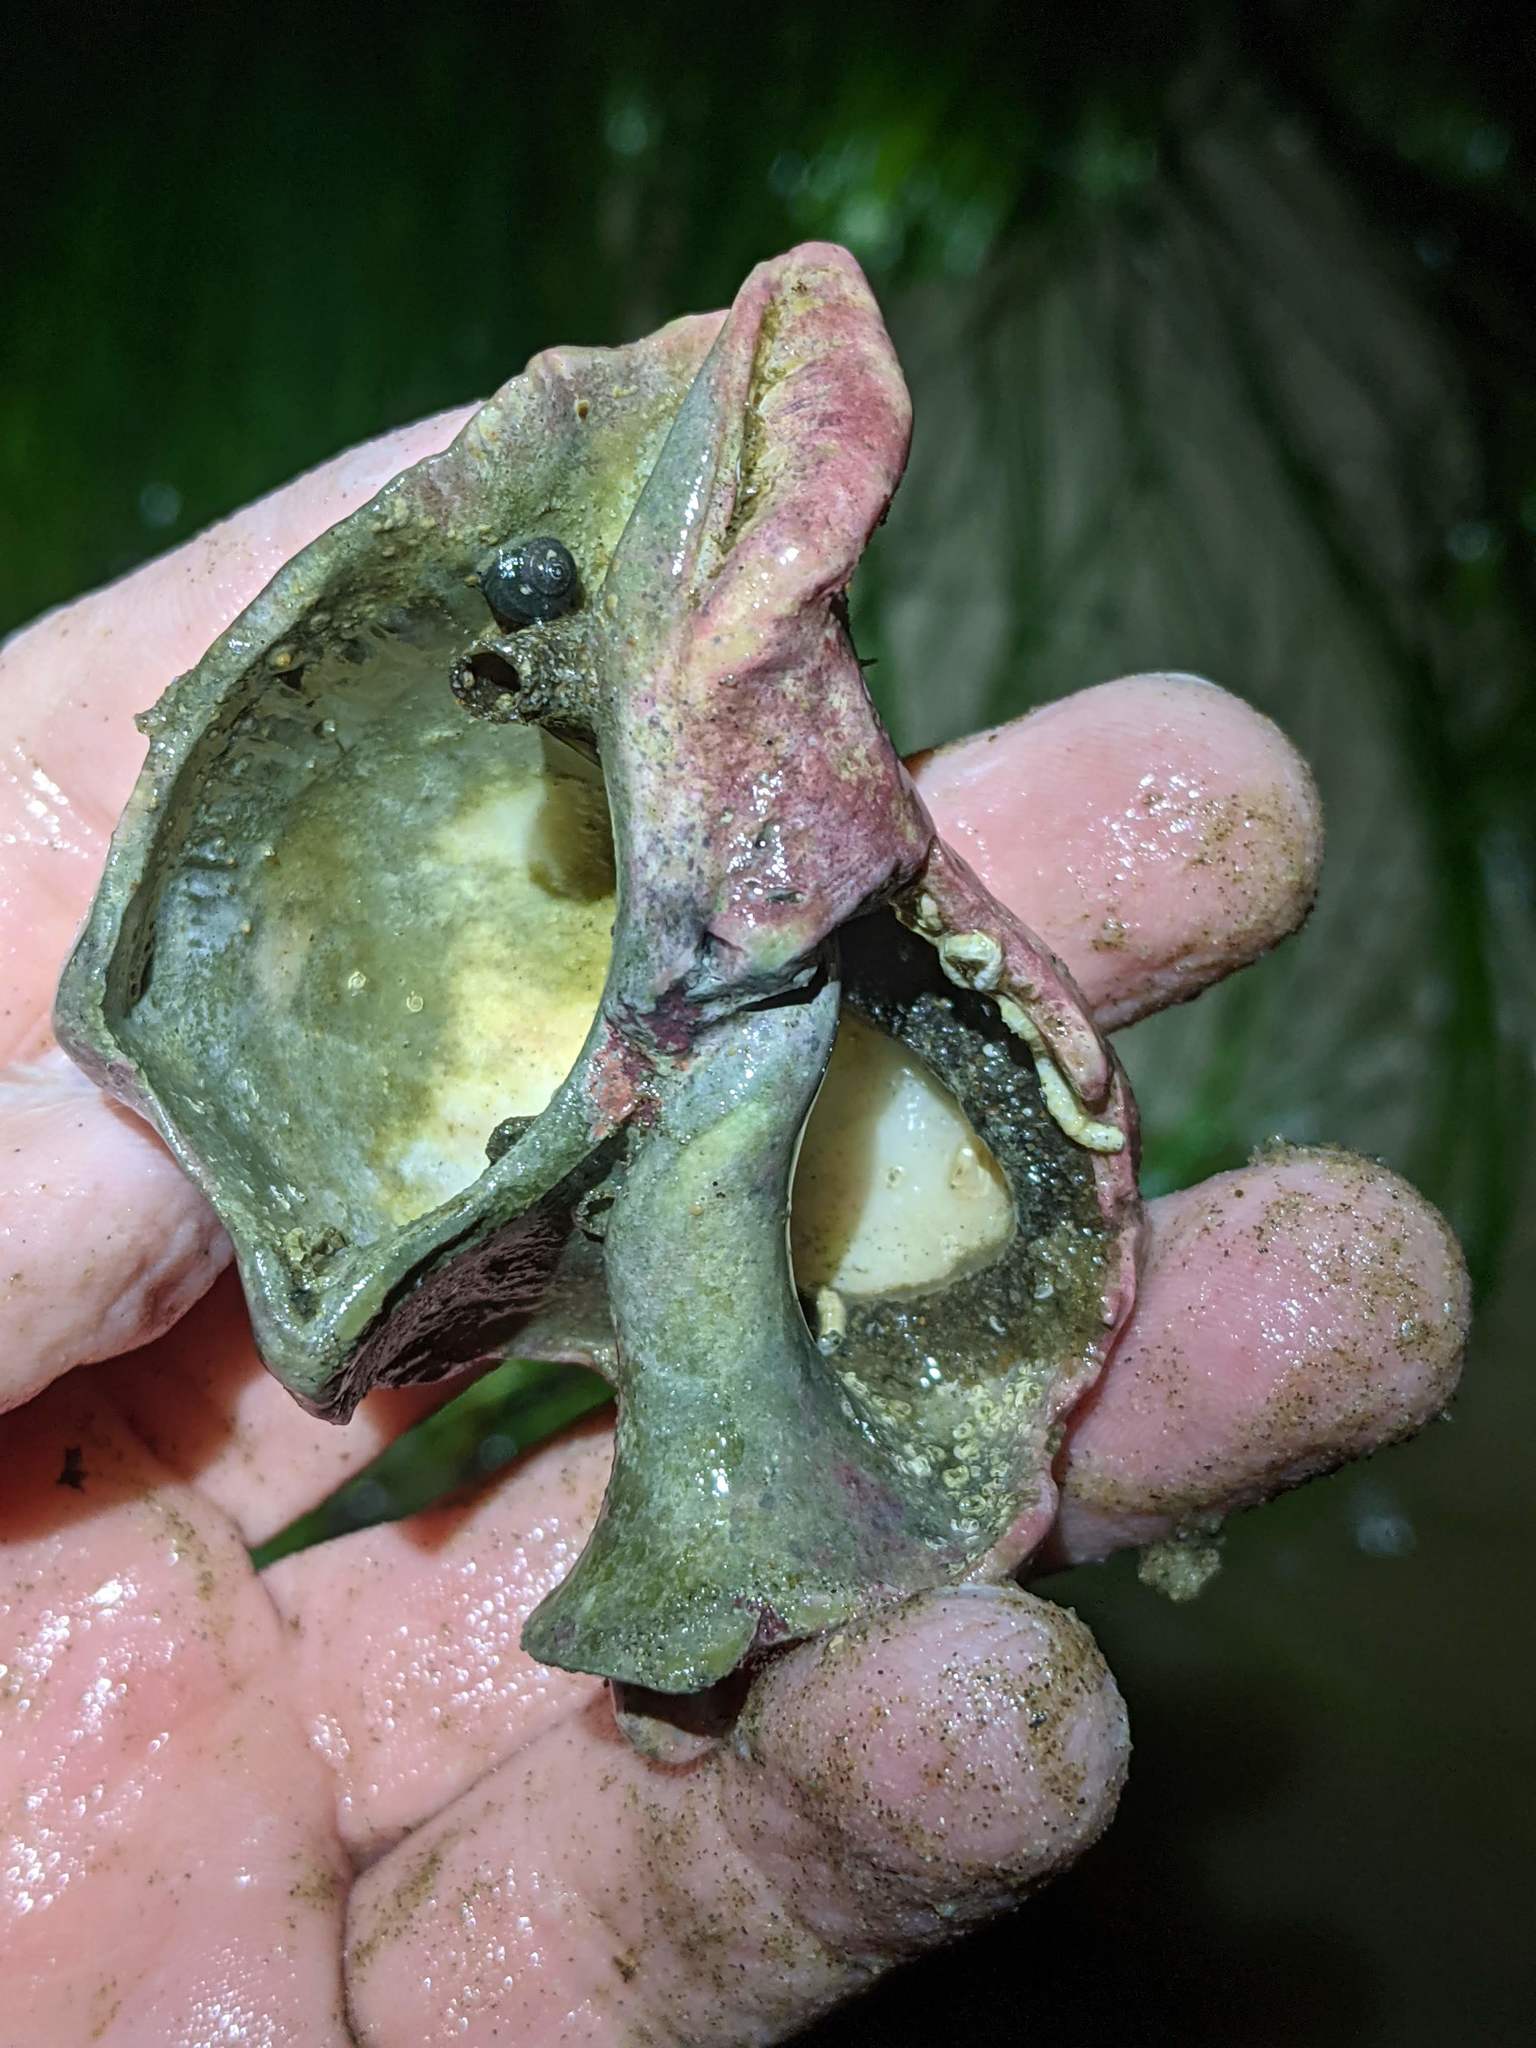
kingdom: Animalia
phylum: Mollusca
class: Gastropoda
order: Neogastropoda
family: Austrosiphonidae
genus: Kelletia
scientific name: Kelletia kelletii
